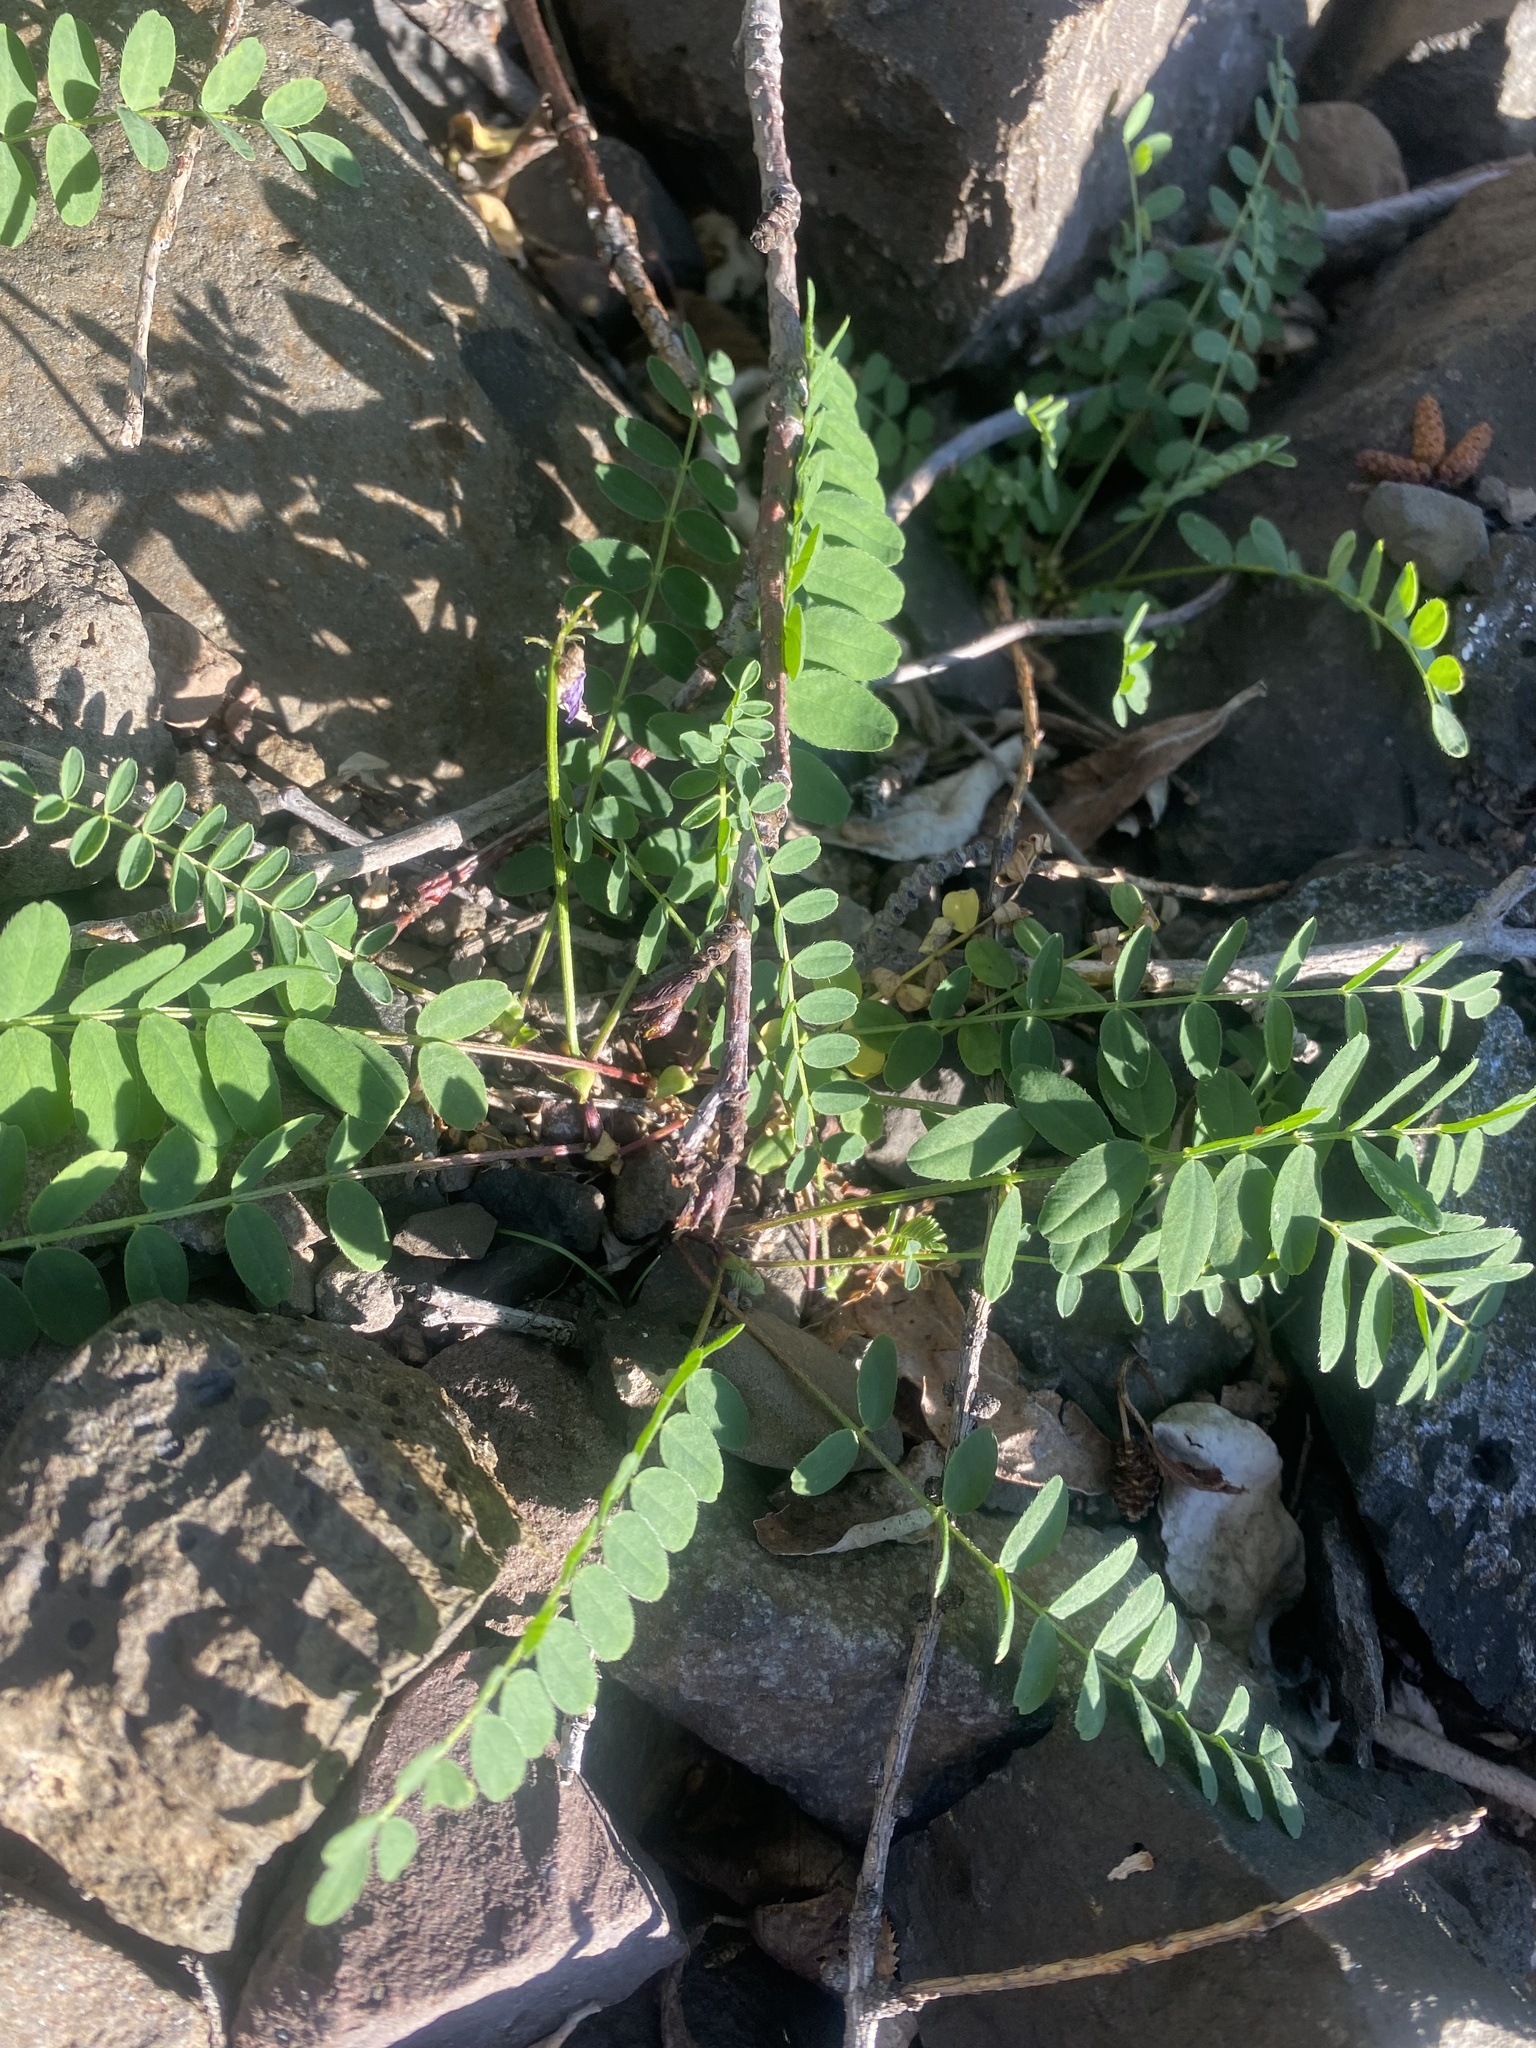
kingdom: Plantae
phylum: Tracheophyta
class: Magnoliopsida
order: Fabales
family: Fabaceae
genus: Astragalus
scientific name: Astragalus alpinus
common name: Alpine milk-vetch
